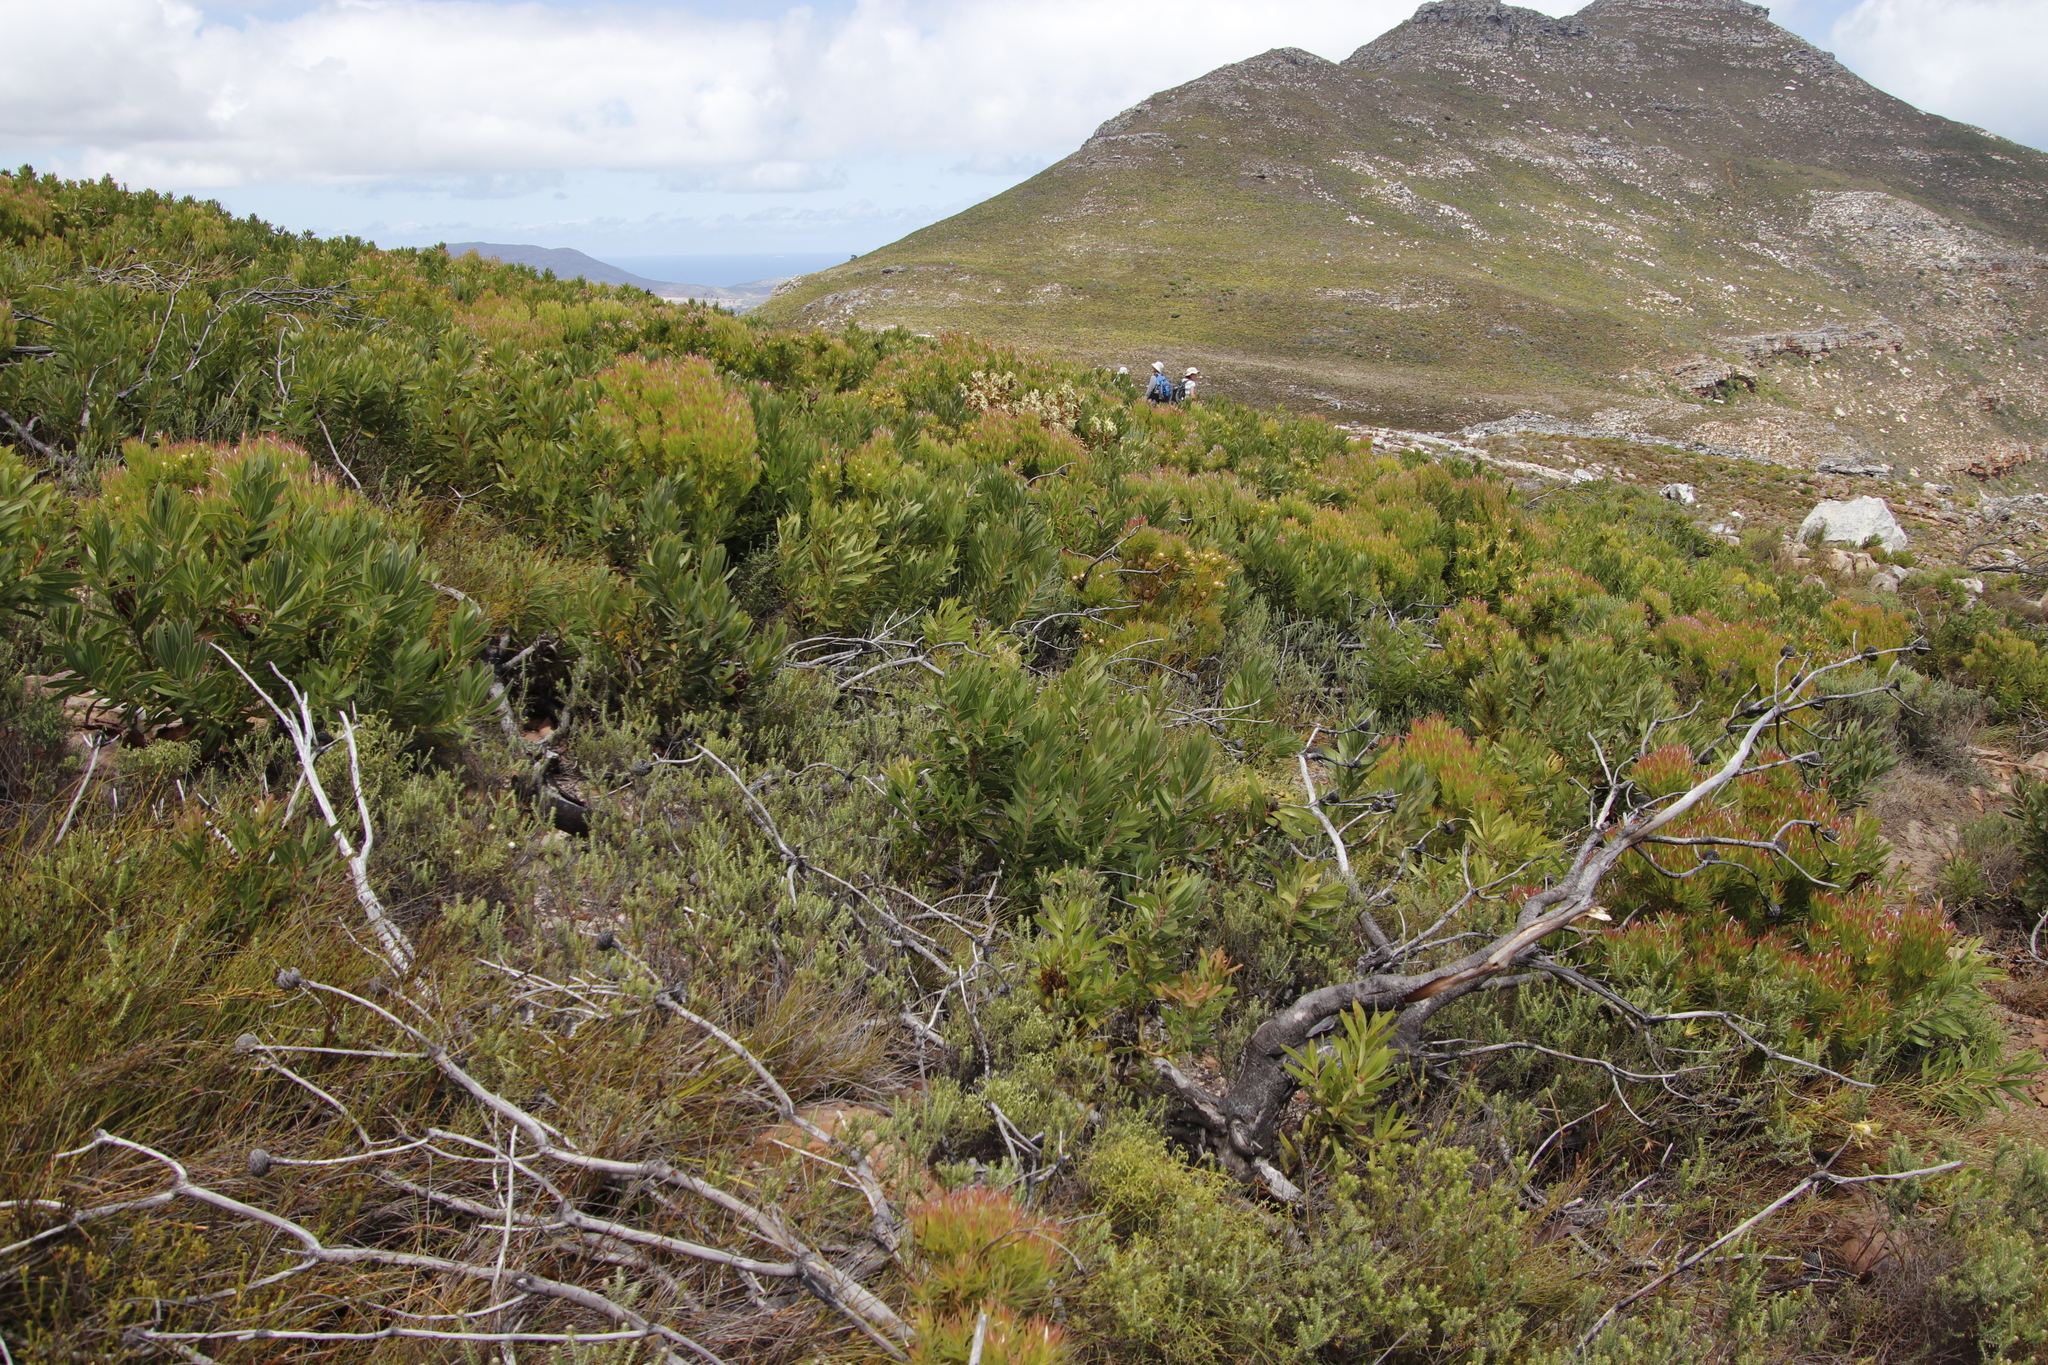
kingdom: Plantae
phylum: Tracheophyta
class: Magnoliopsida
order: Proteales
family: Proteaceae
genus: Protea
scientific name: Protea lepidocarpodendron
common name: Black-bearded protea
